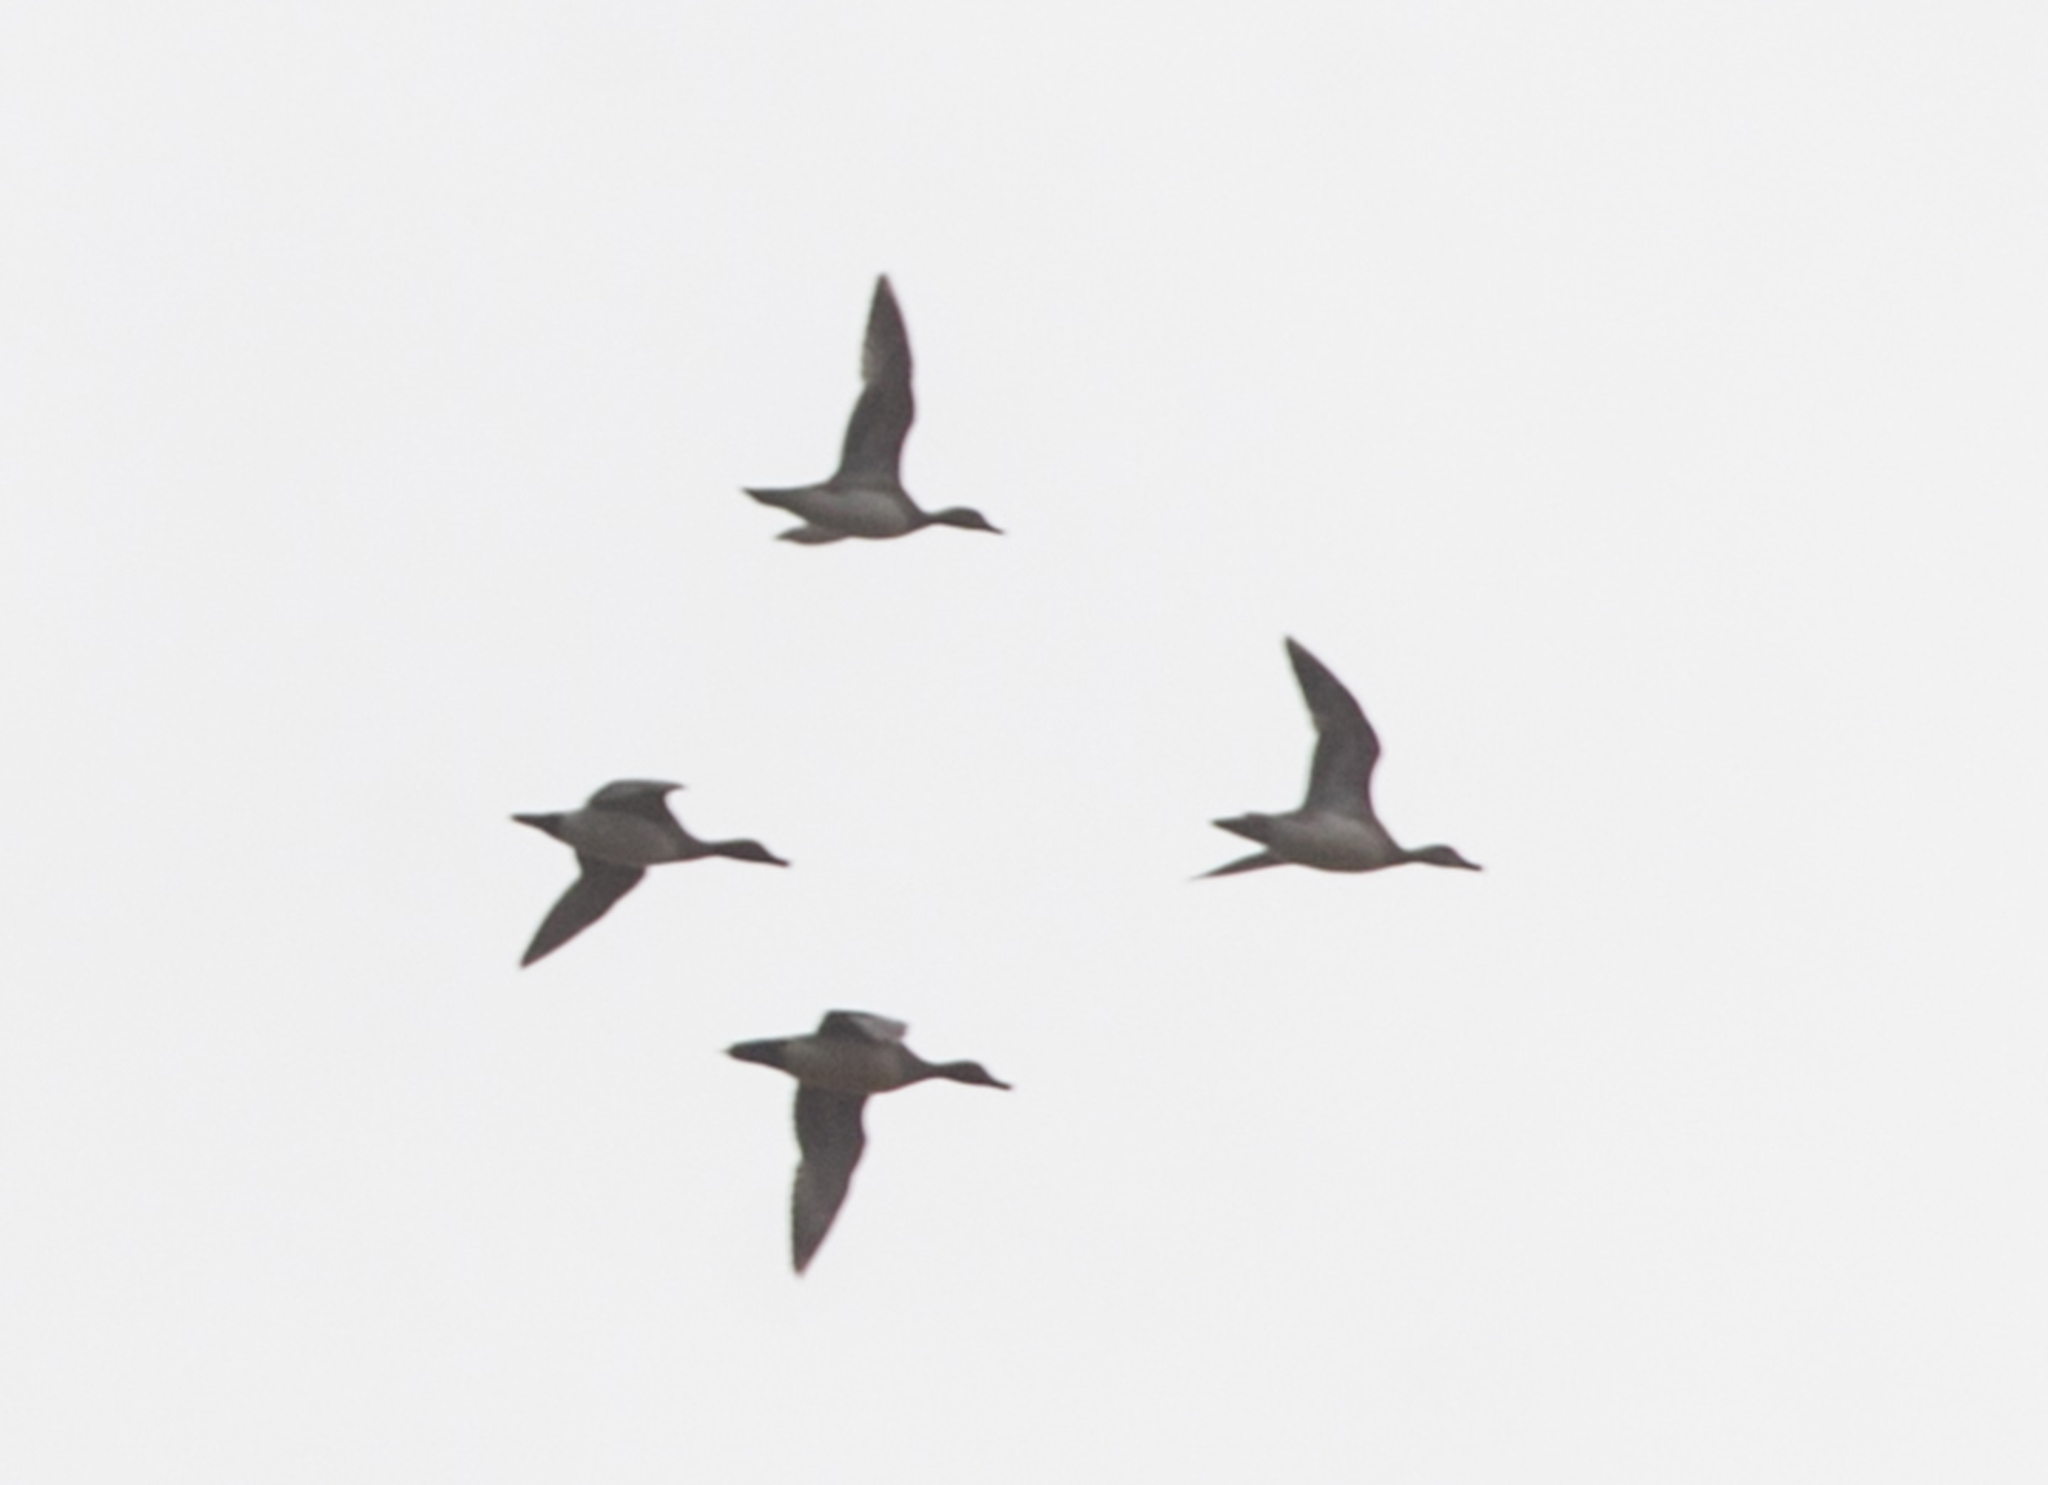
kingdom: Animalia
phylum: Chordata
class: Aves
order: Anseriformes
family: Anatidae
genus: Mareca
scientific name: Mareca penelope
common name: Eurasian wigeon
